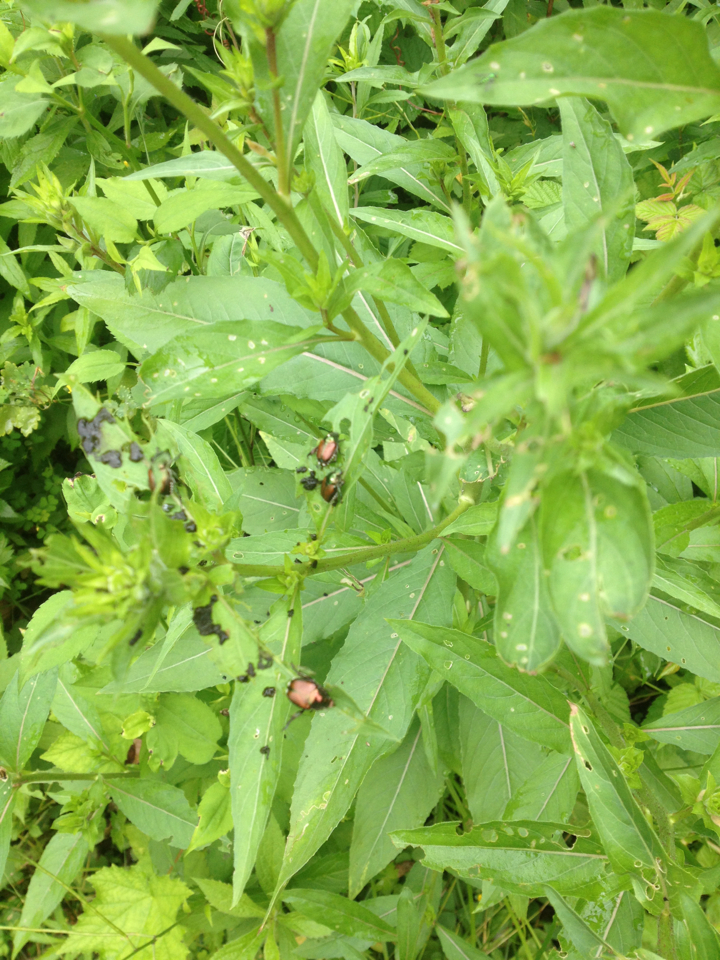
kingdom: Animalia
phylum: Arthropoda
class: Insecta
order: Coleoptera
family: Scarabaeidae
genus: Popillia
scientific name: Popillia japonica
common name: Japanese beetle
